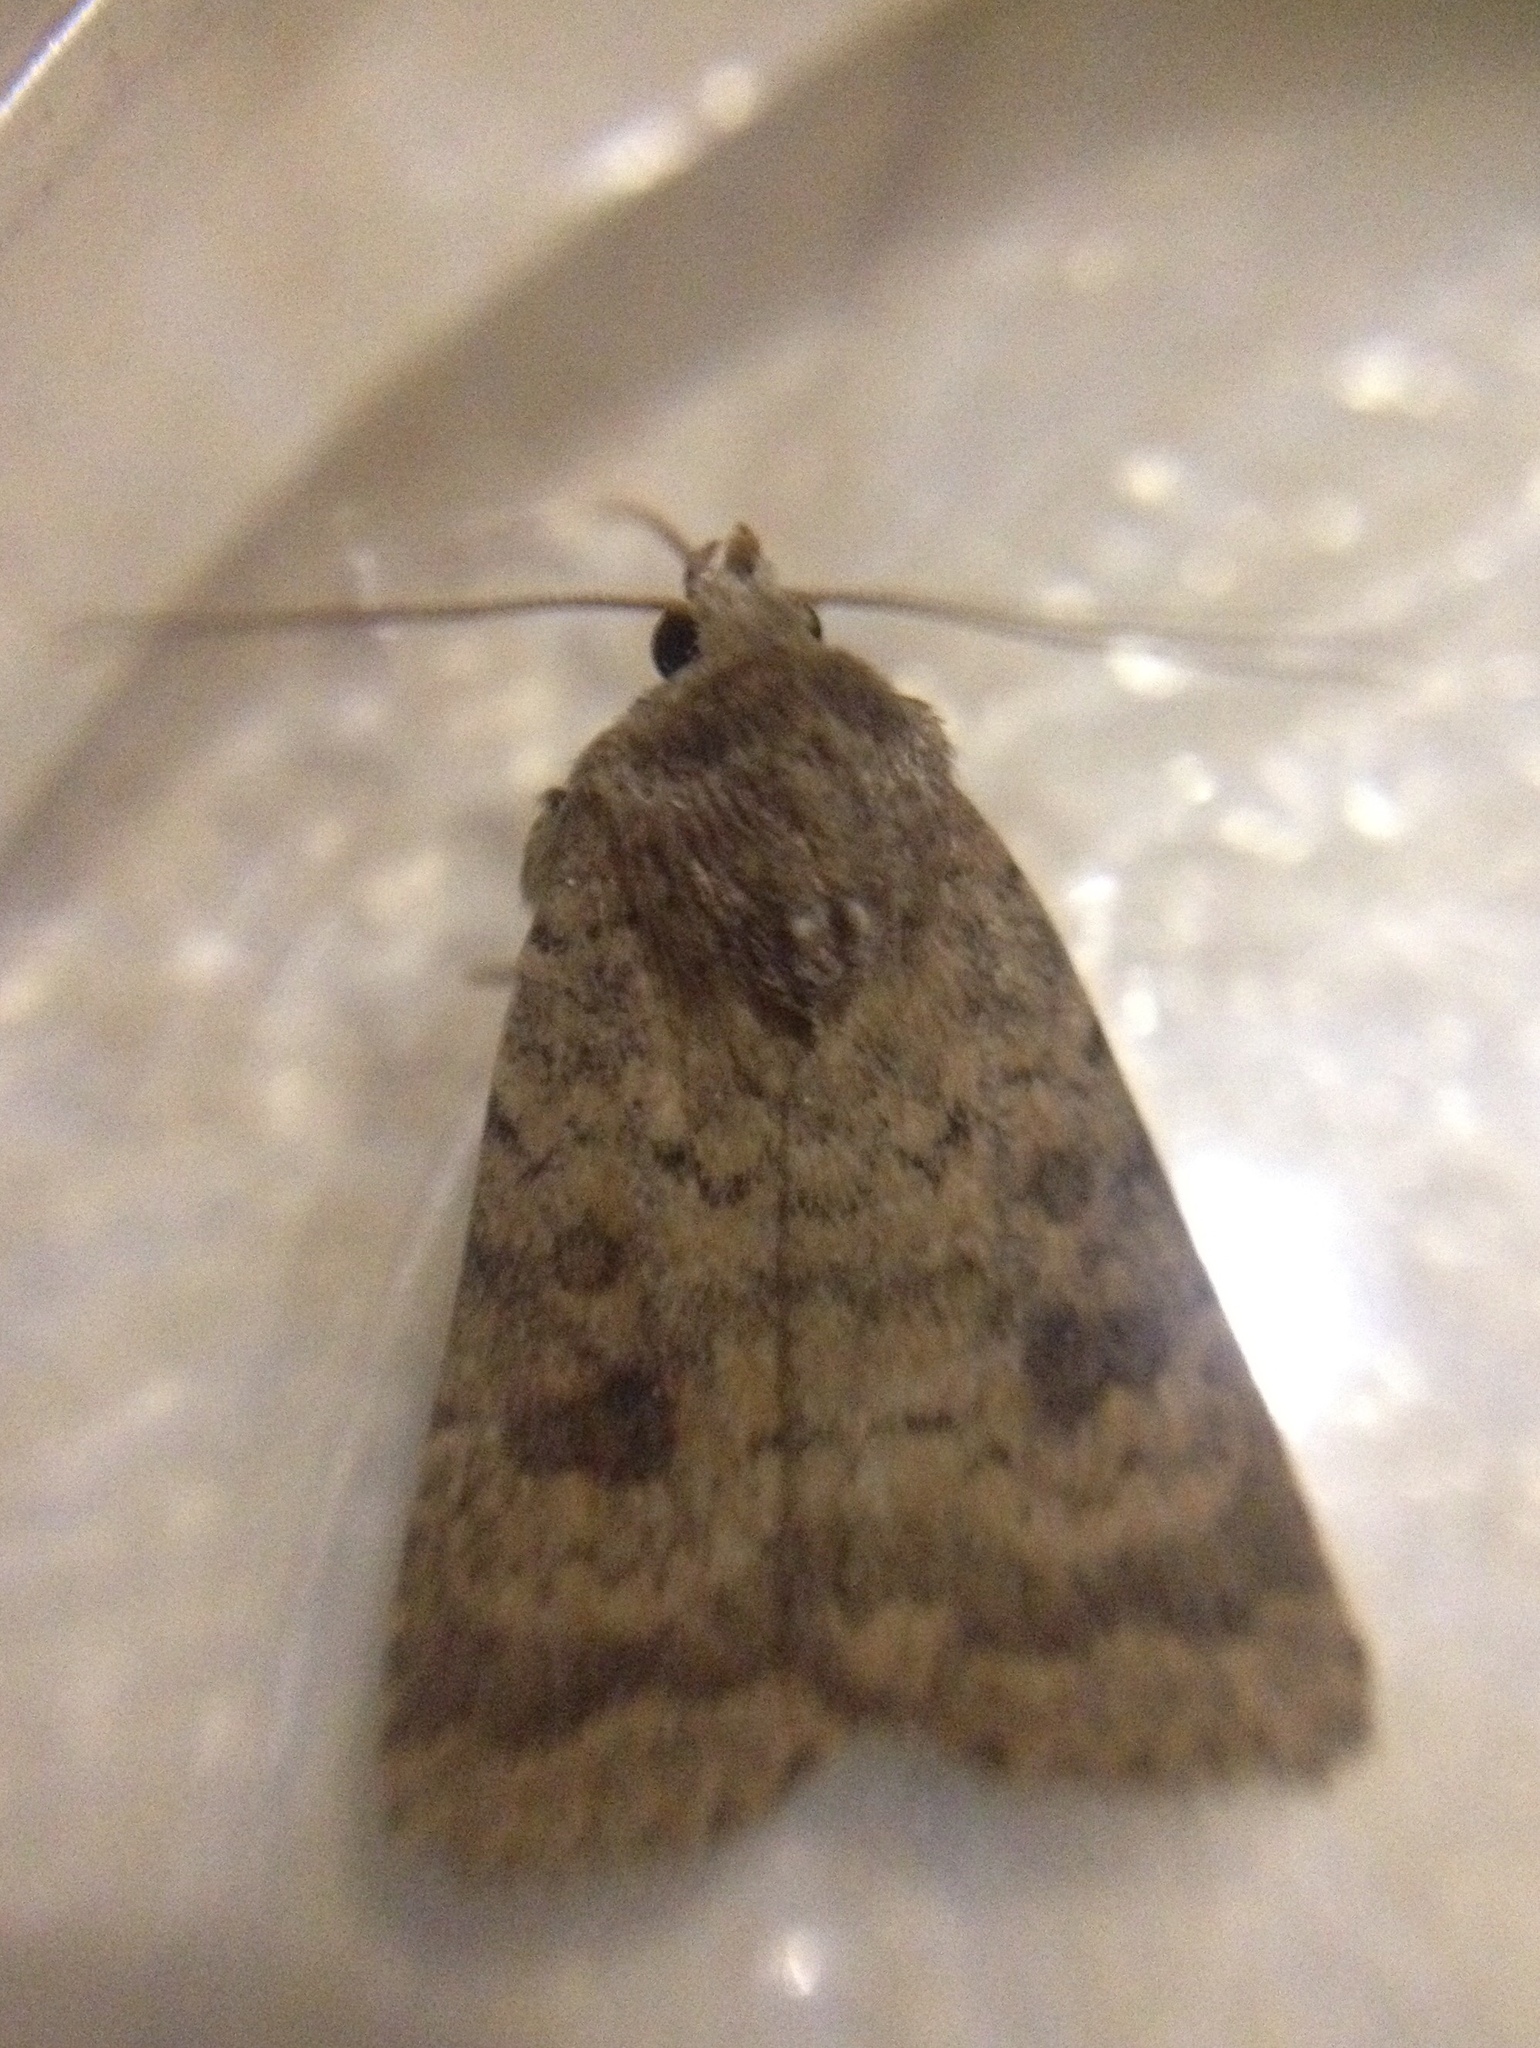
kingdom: Animalia
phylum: Arthropoda
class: Insecta
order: Lepidoptera
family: Noctuidae
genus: Caradrina
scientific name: Caradrina morpheus
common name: Mottled rustic
